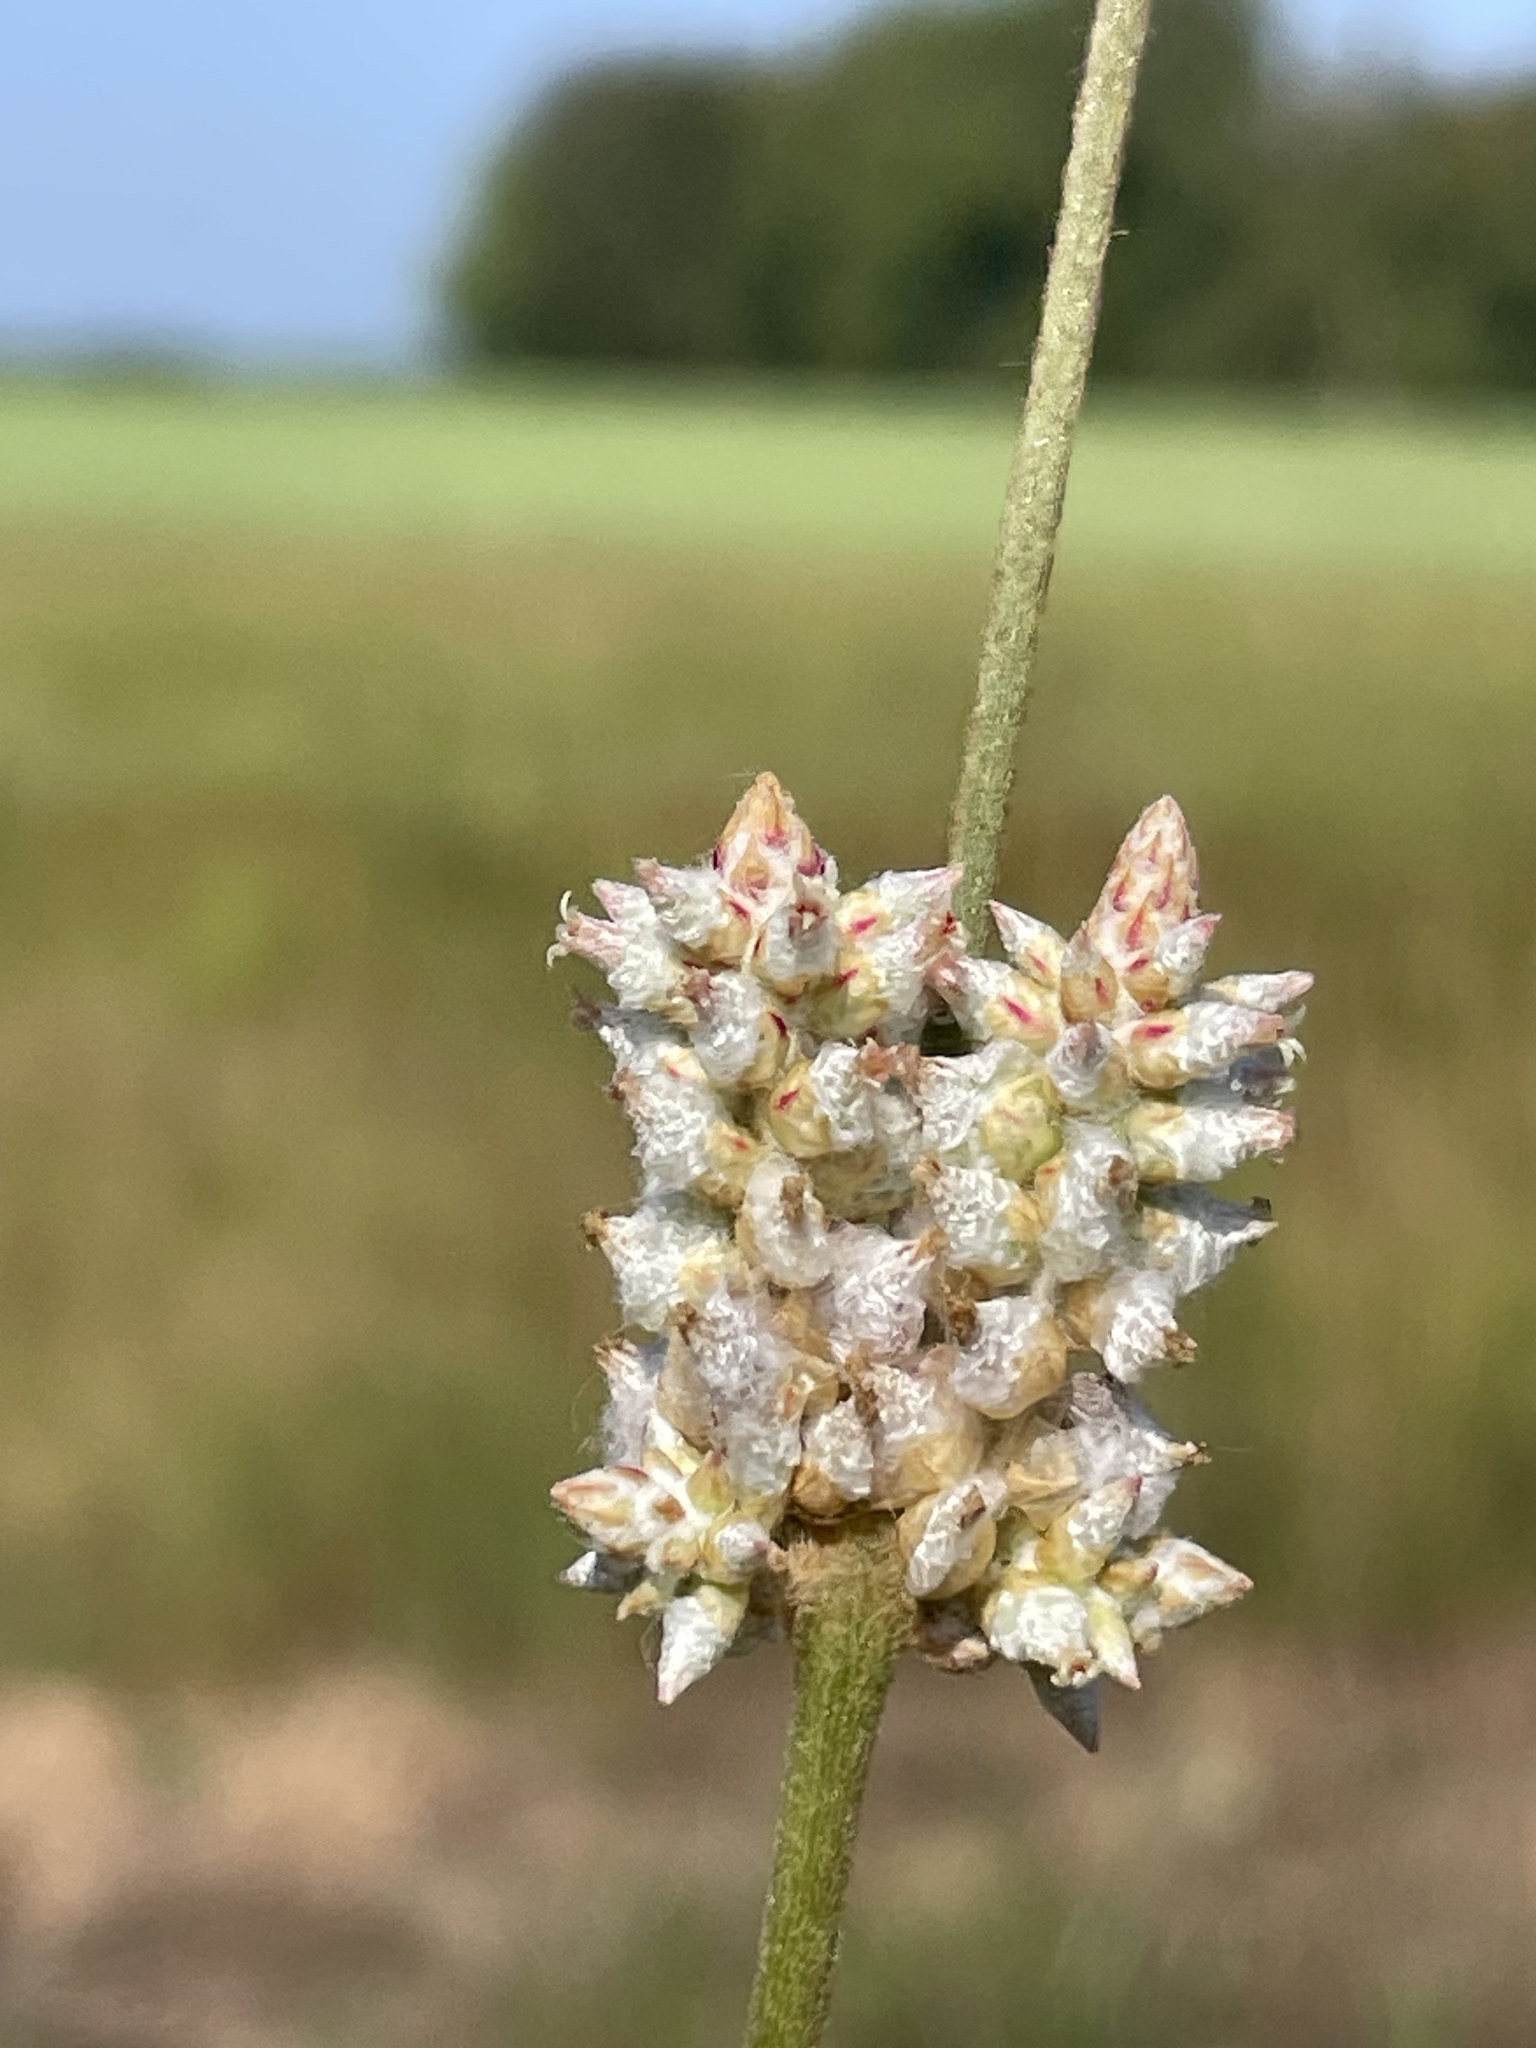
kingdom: Plantae
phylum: Tracheophyta
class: Magnoliopsida
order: Caryophyllales
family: Amaranthaceae
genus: Froelichia
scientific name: Froelichia floridana
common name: Florida snake-cotton
